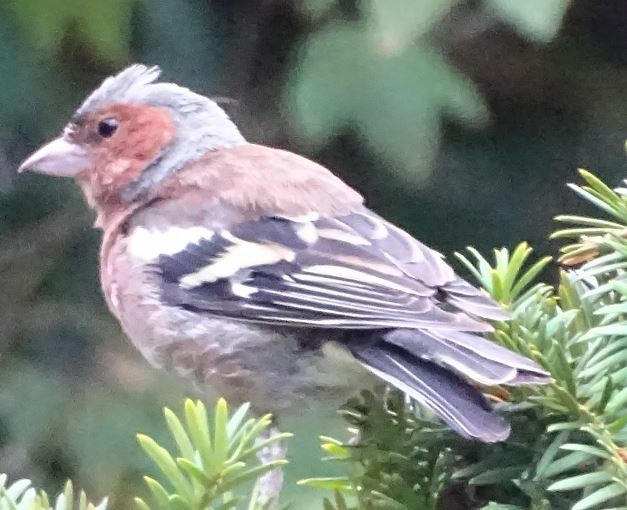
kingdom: Animalia
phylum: Chordata
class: Aves
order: Passeriformes
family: Fringillidae
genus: Fringilla
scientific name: Fringilla coelebs
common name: Common chaffinch
